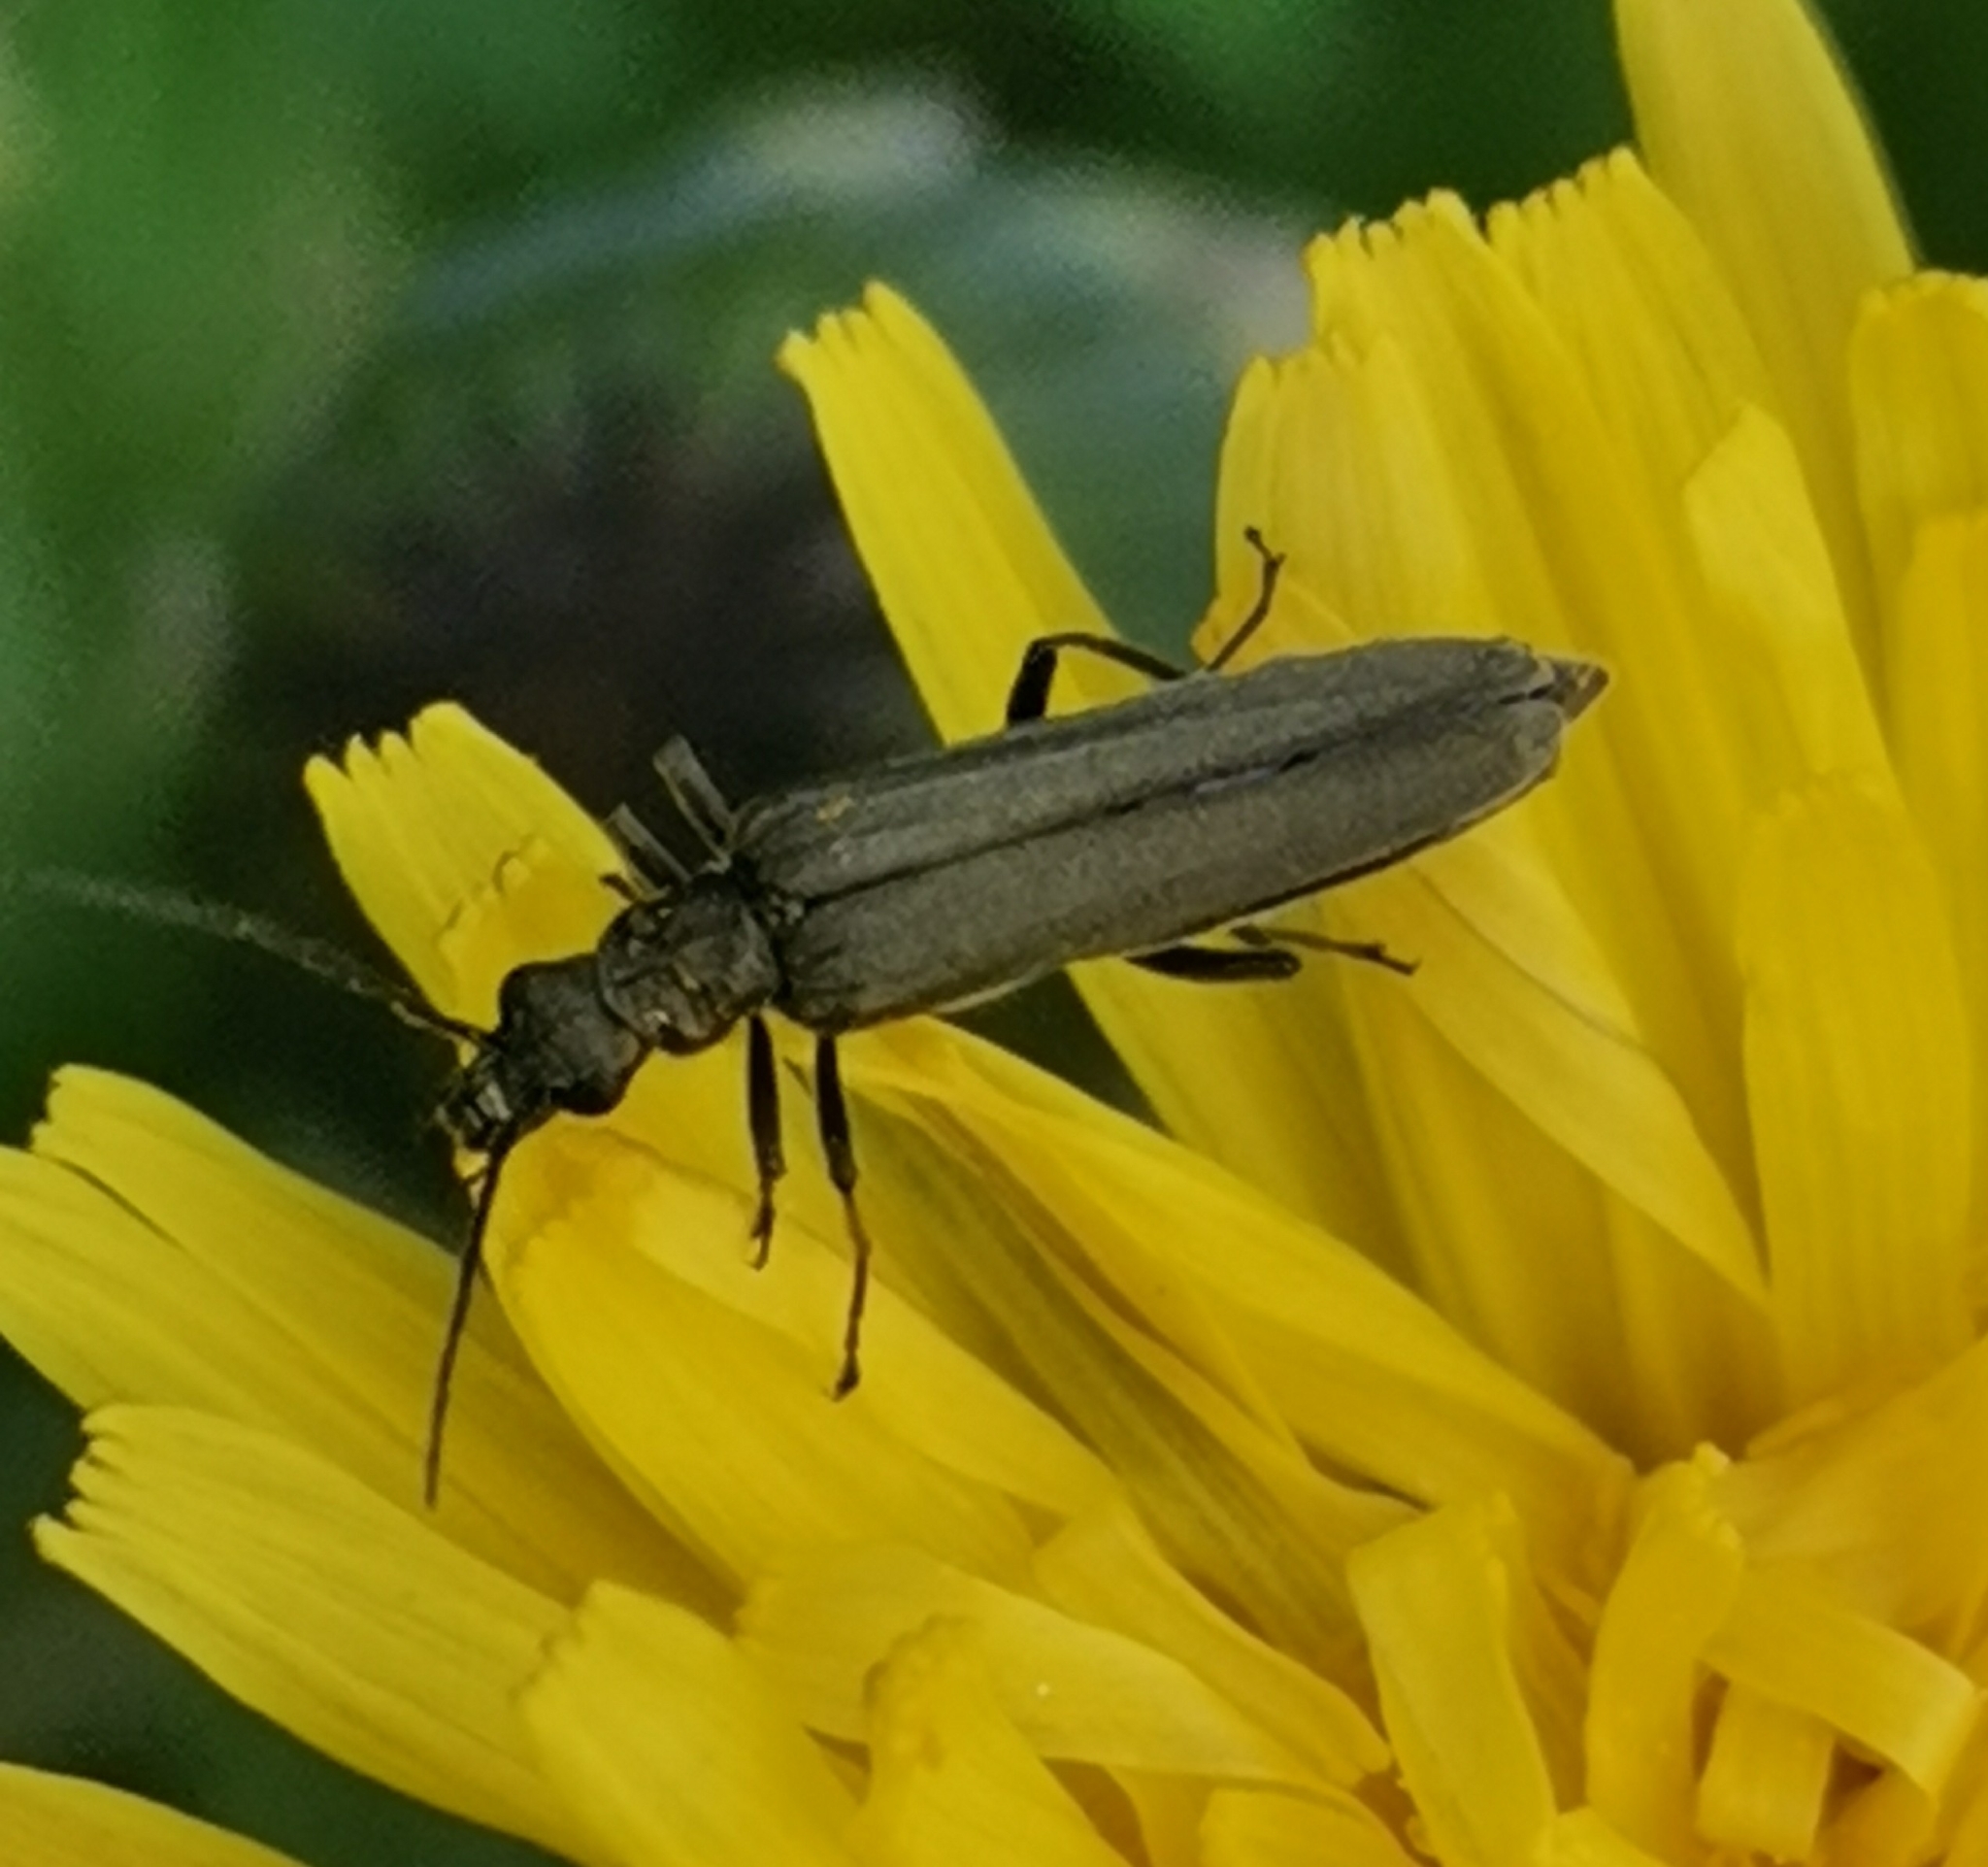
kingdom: Animalia
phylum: Arthropoda
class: Insecta
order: Coleoptera
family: Oedemeridae
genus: Oedemera
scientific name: Oedemera virescens
